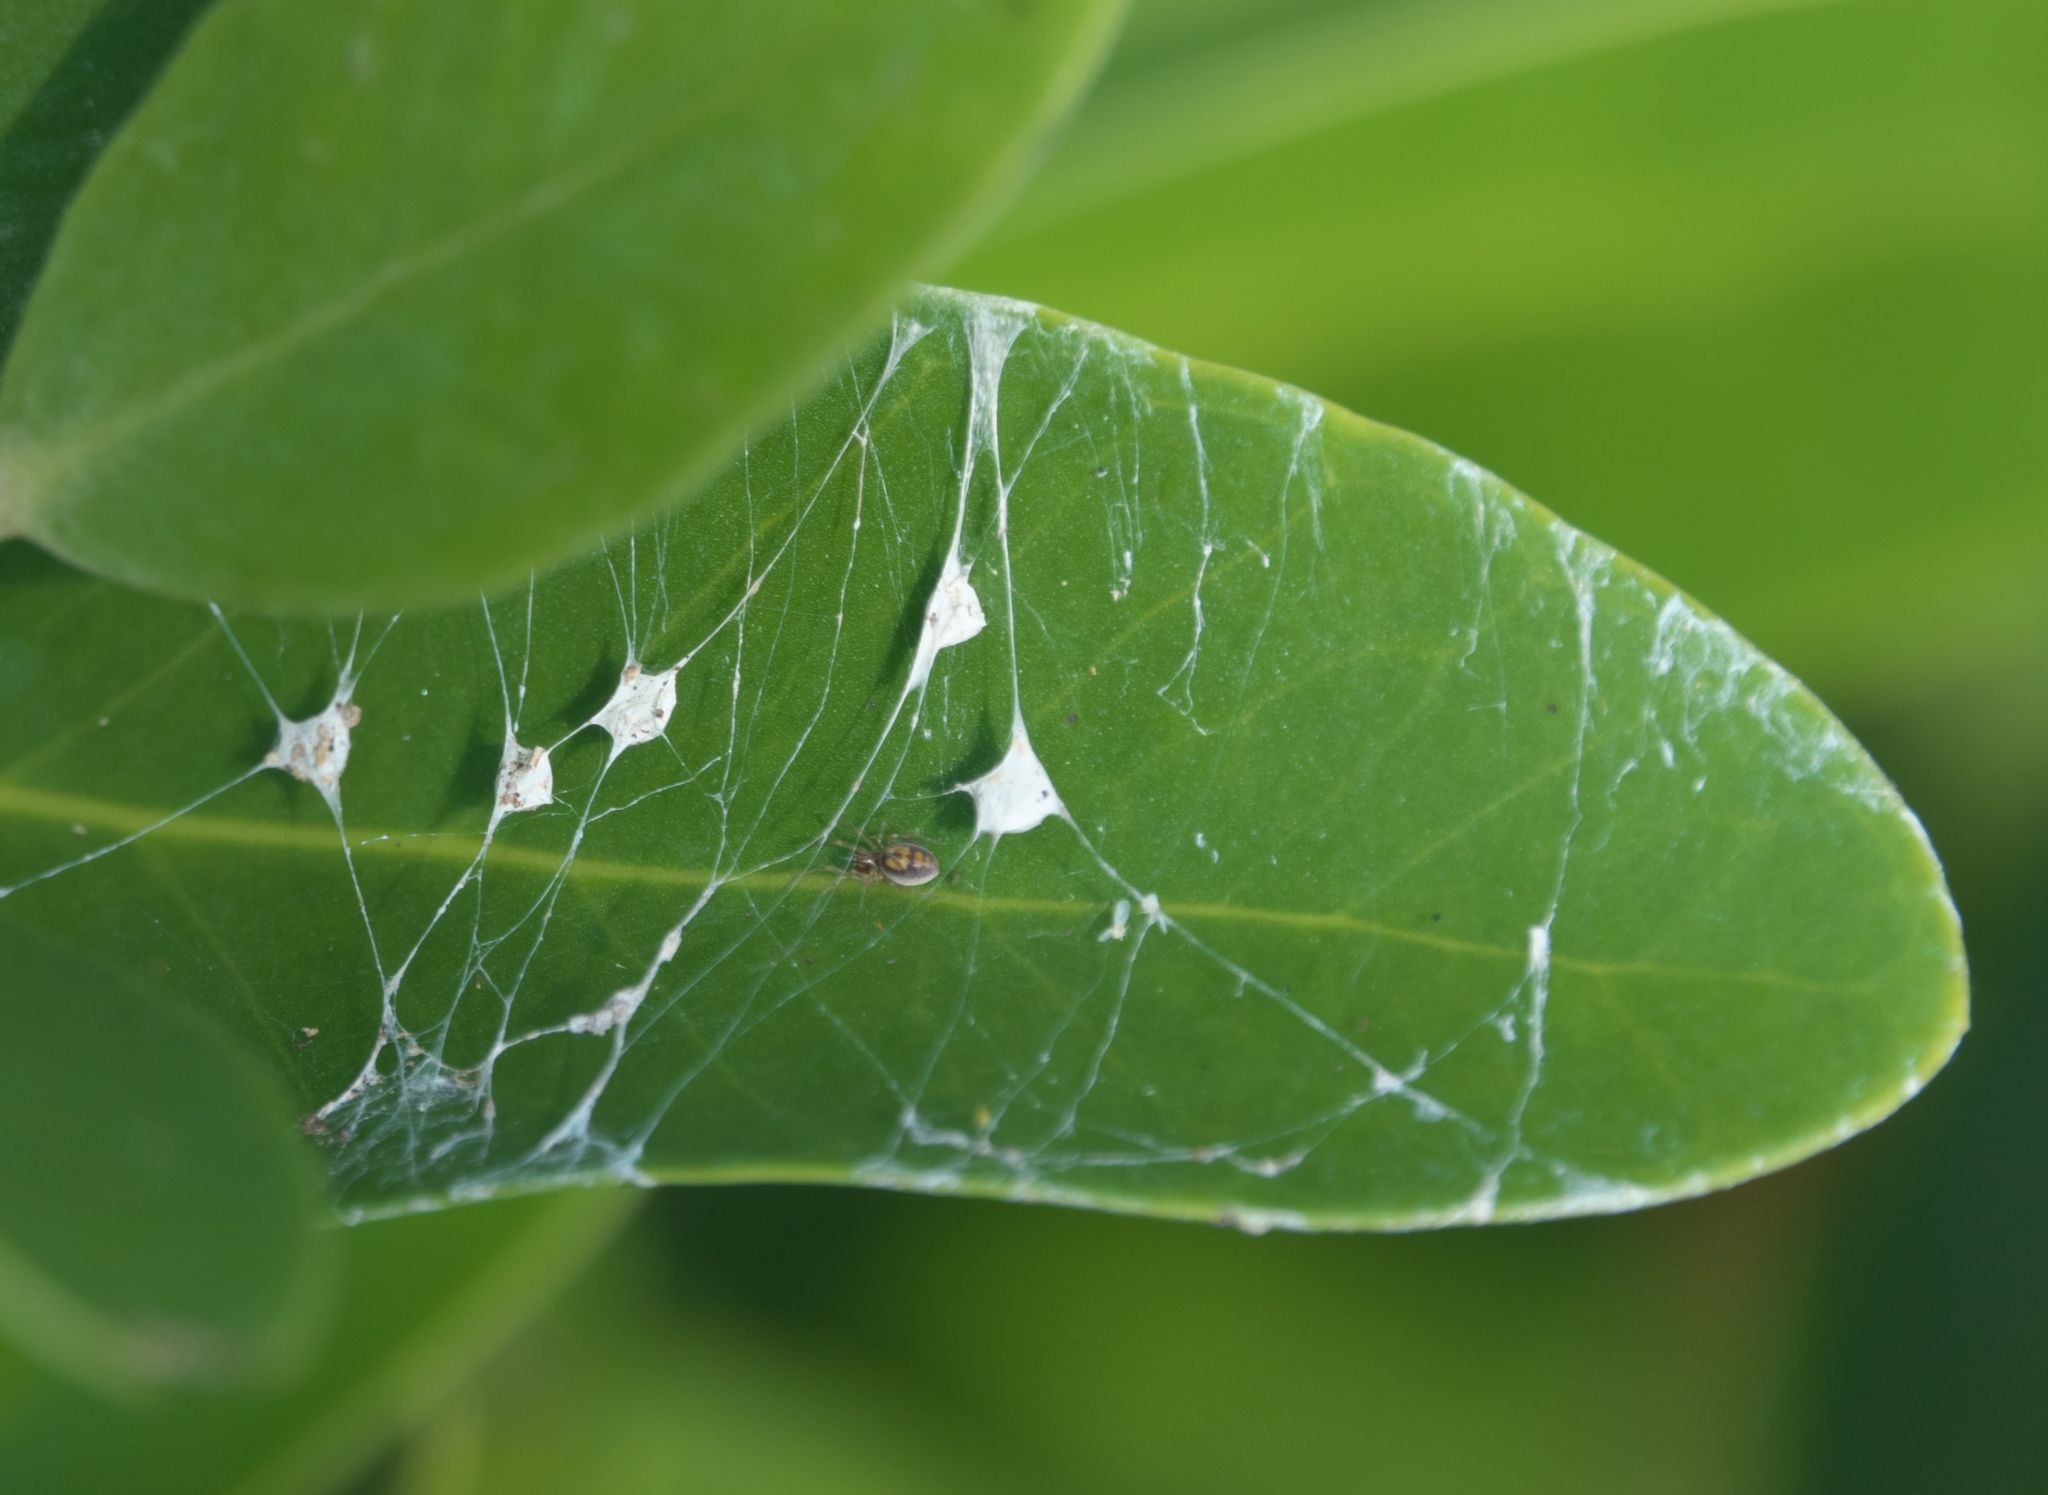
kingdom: Animalia
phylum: Arthropoda
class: Arachnida
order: Araneae
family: Dictynidae
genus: Emblyna
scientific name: Emblyna florens
